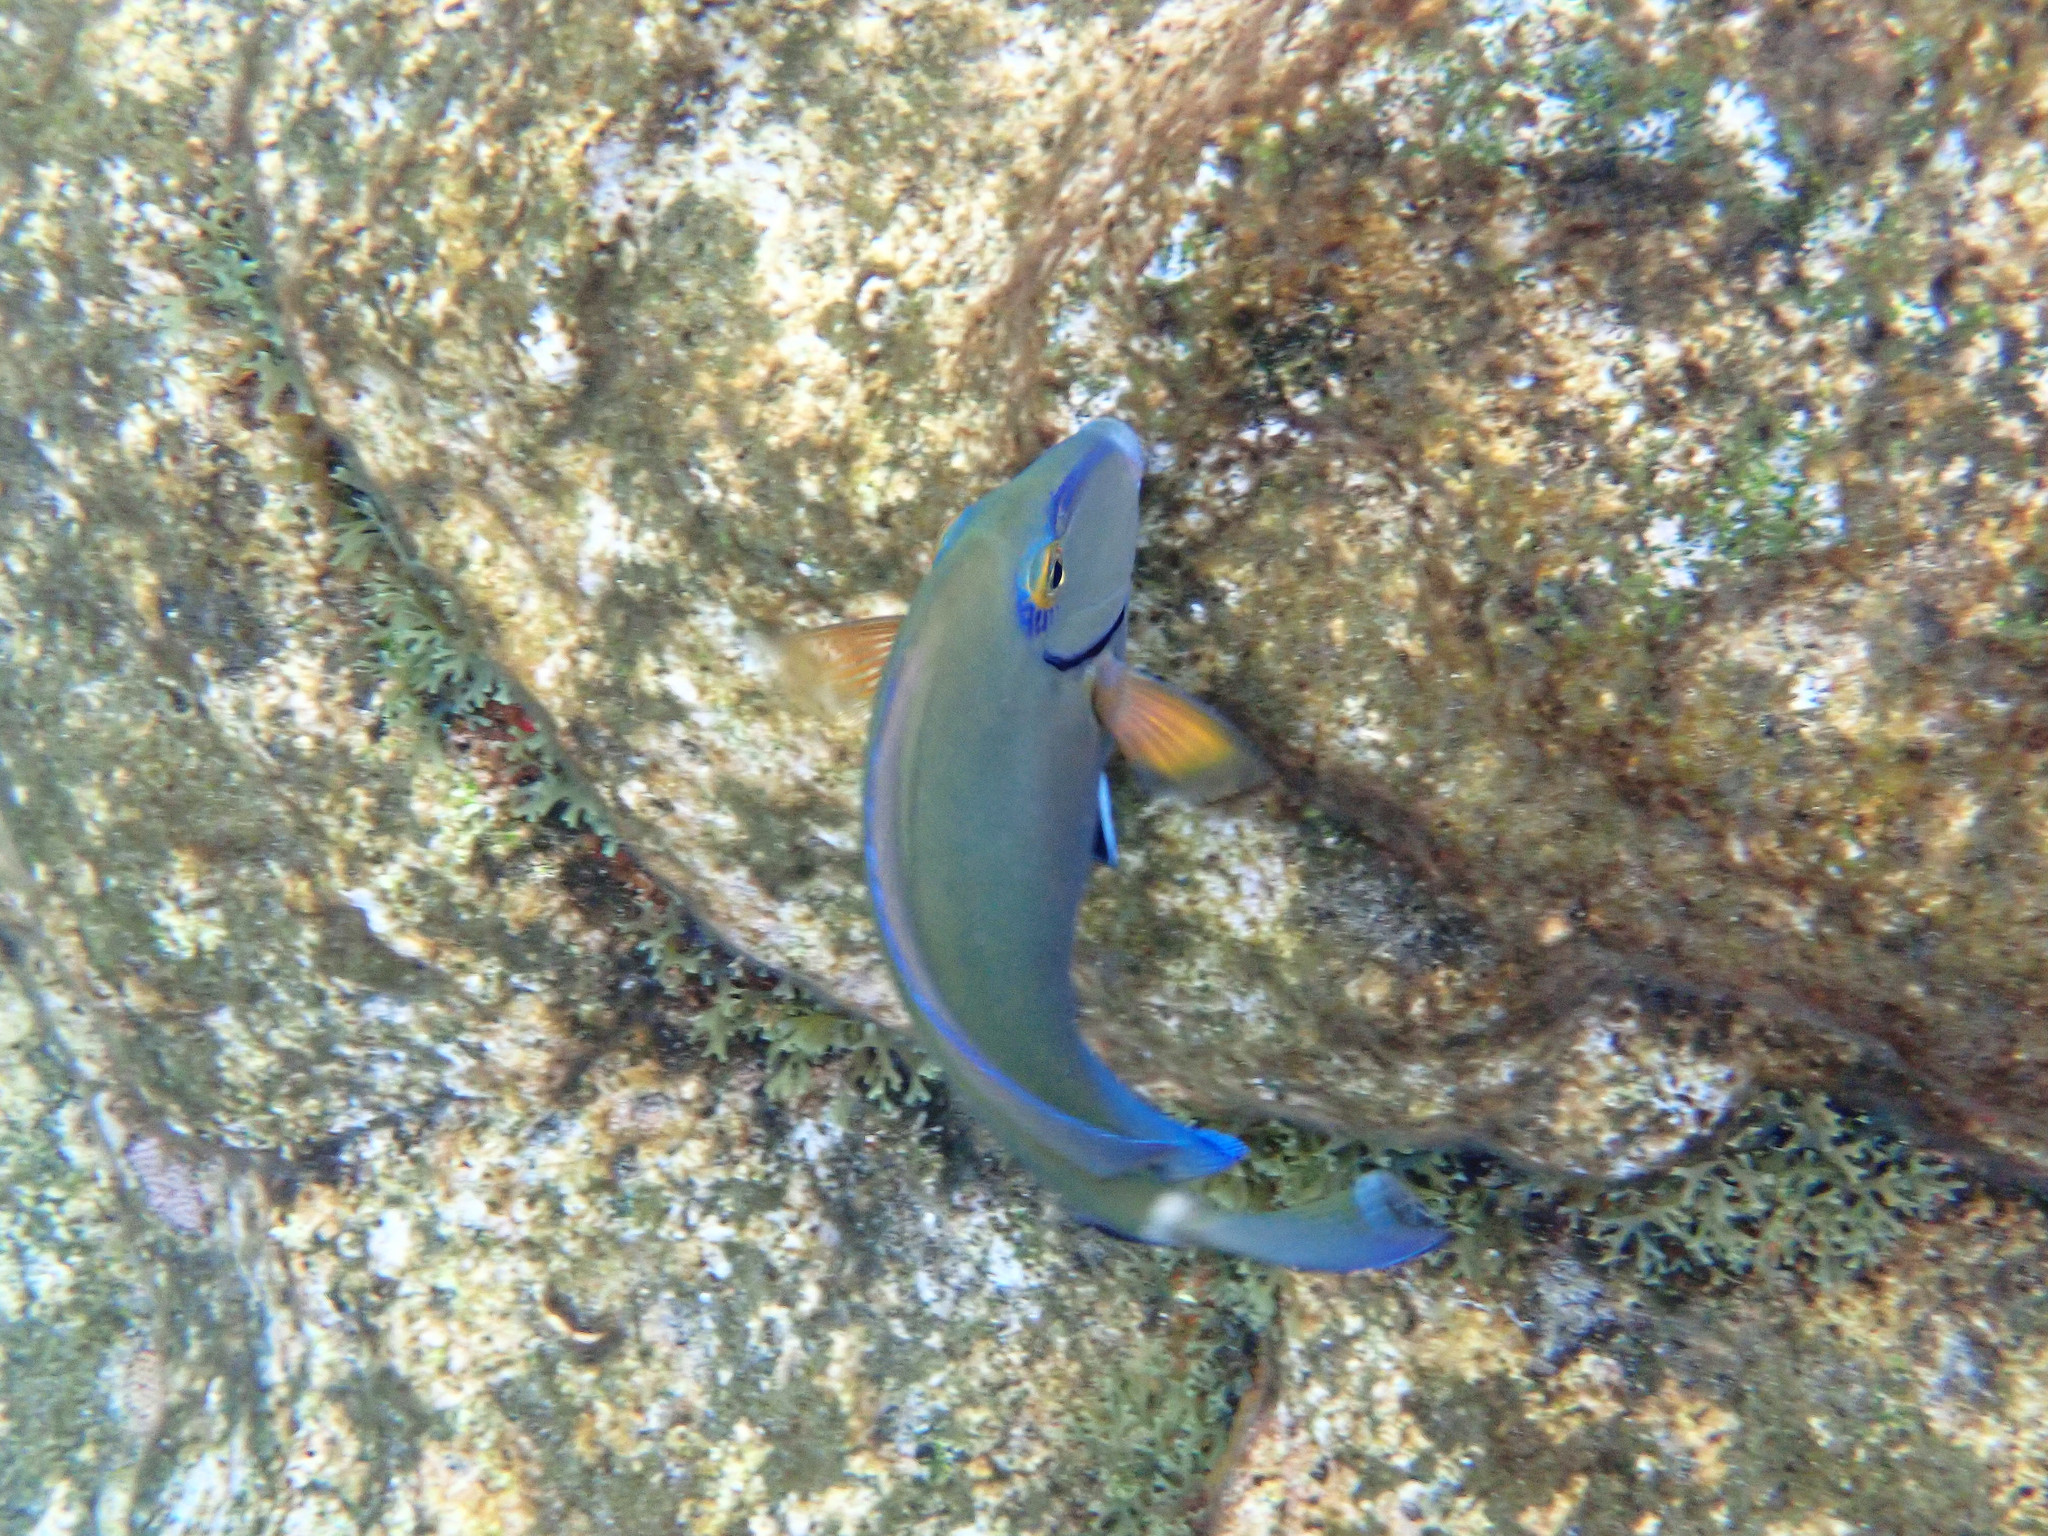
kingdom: Animalia
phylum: Chordata
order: Perciformes
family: Acanthuridae
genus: Acanthurus
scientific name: Acanthurus bahianus
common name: Ocean surgeon
